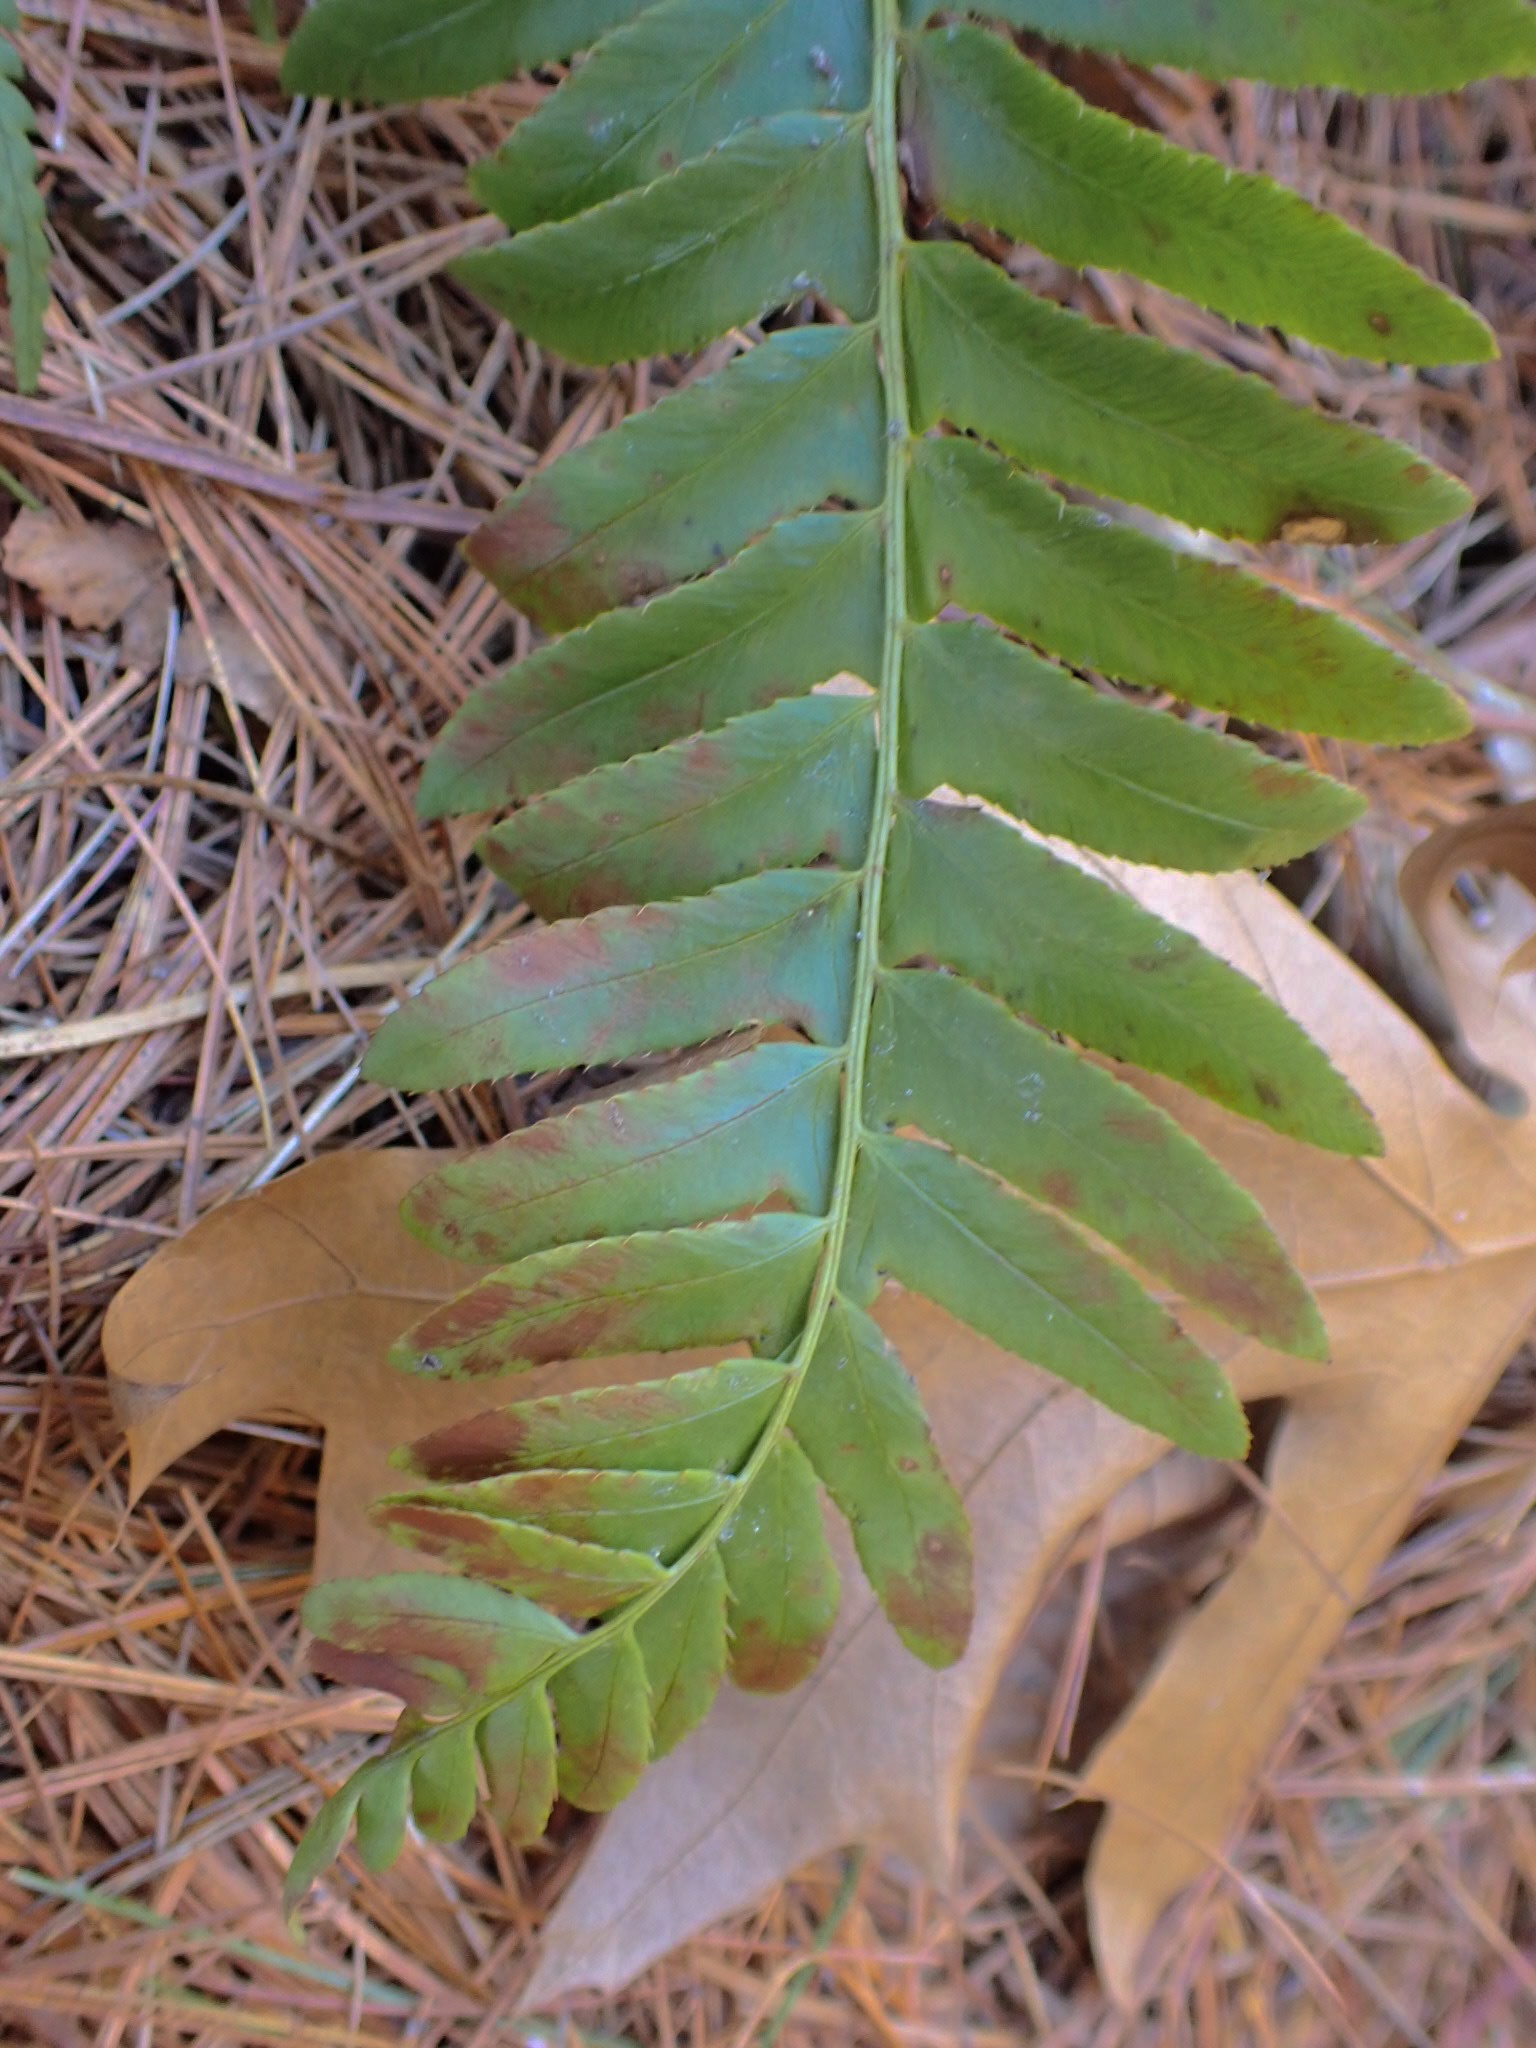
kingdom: Plantae
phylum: Tracheophyta
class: Polypodiopsida
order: Polypodiales
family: Dryopteridaceae
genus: Polystichum
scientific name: Polystichum acrostichoides
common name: Christmas fern
